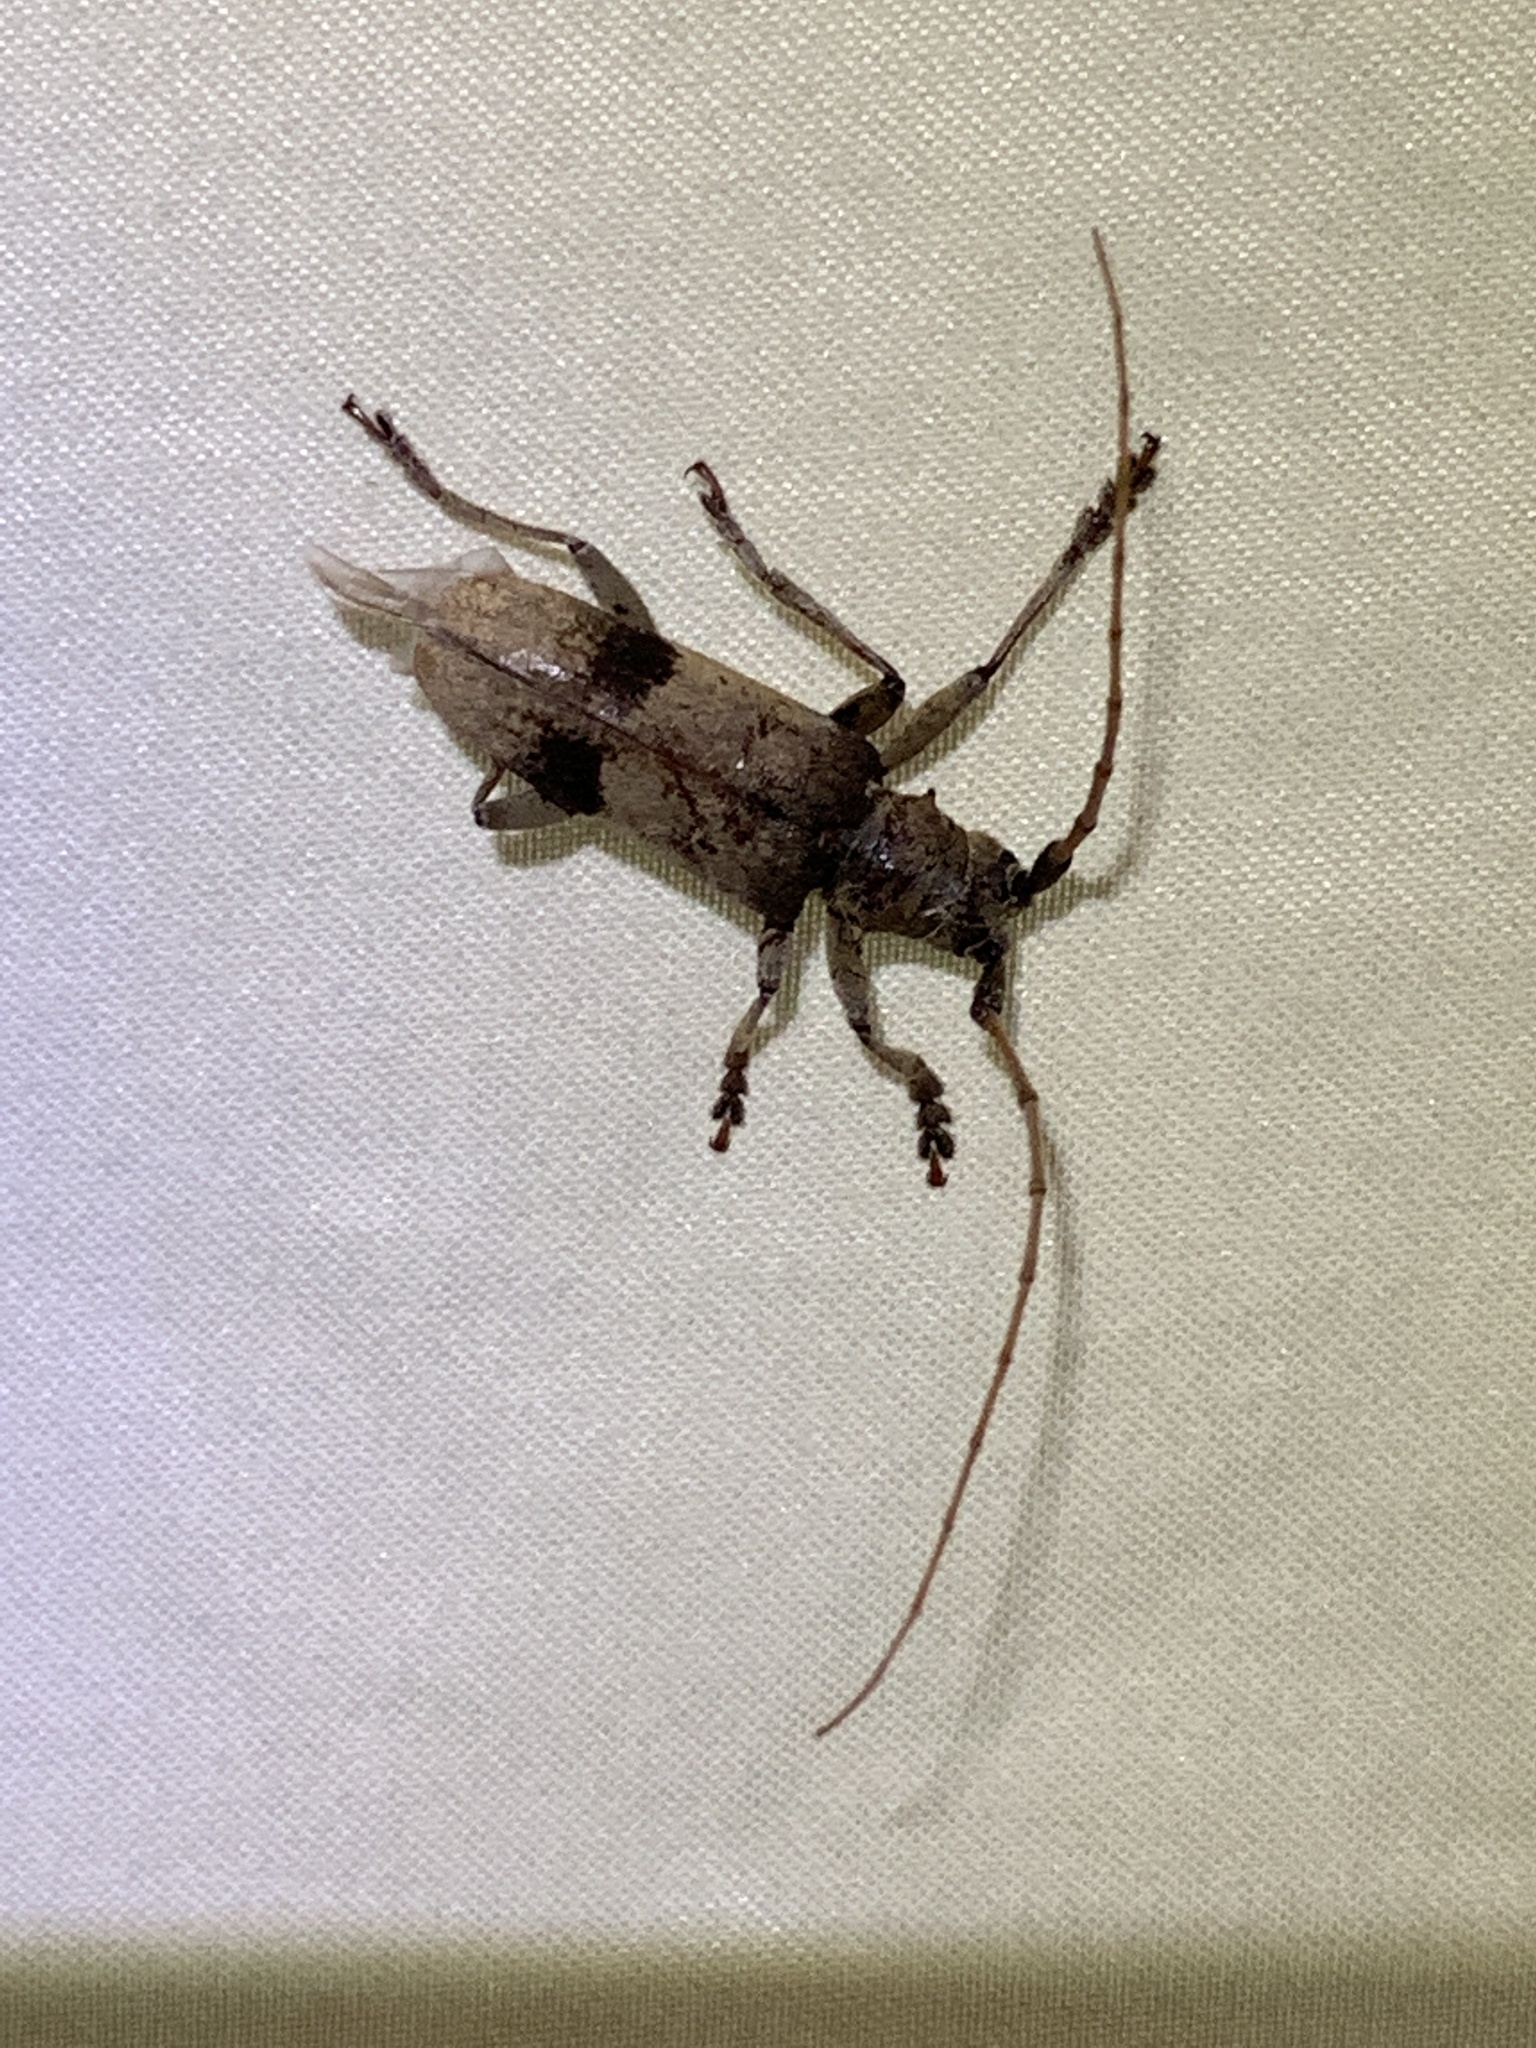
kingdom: Animalia
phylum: Arthropoda
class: Insecta
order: Coleoptera
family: Cerambycidae
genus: Goes
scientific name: Goes pulcher
